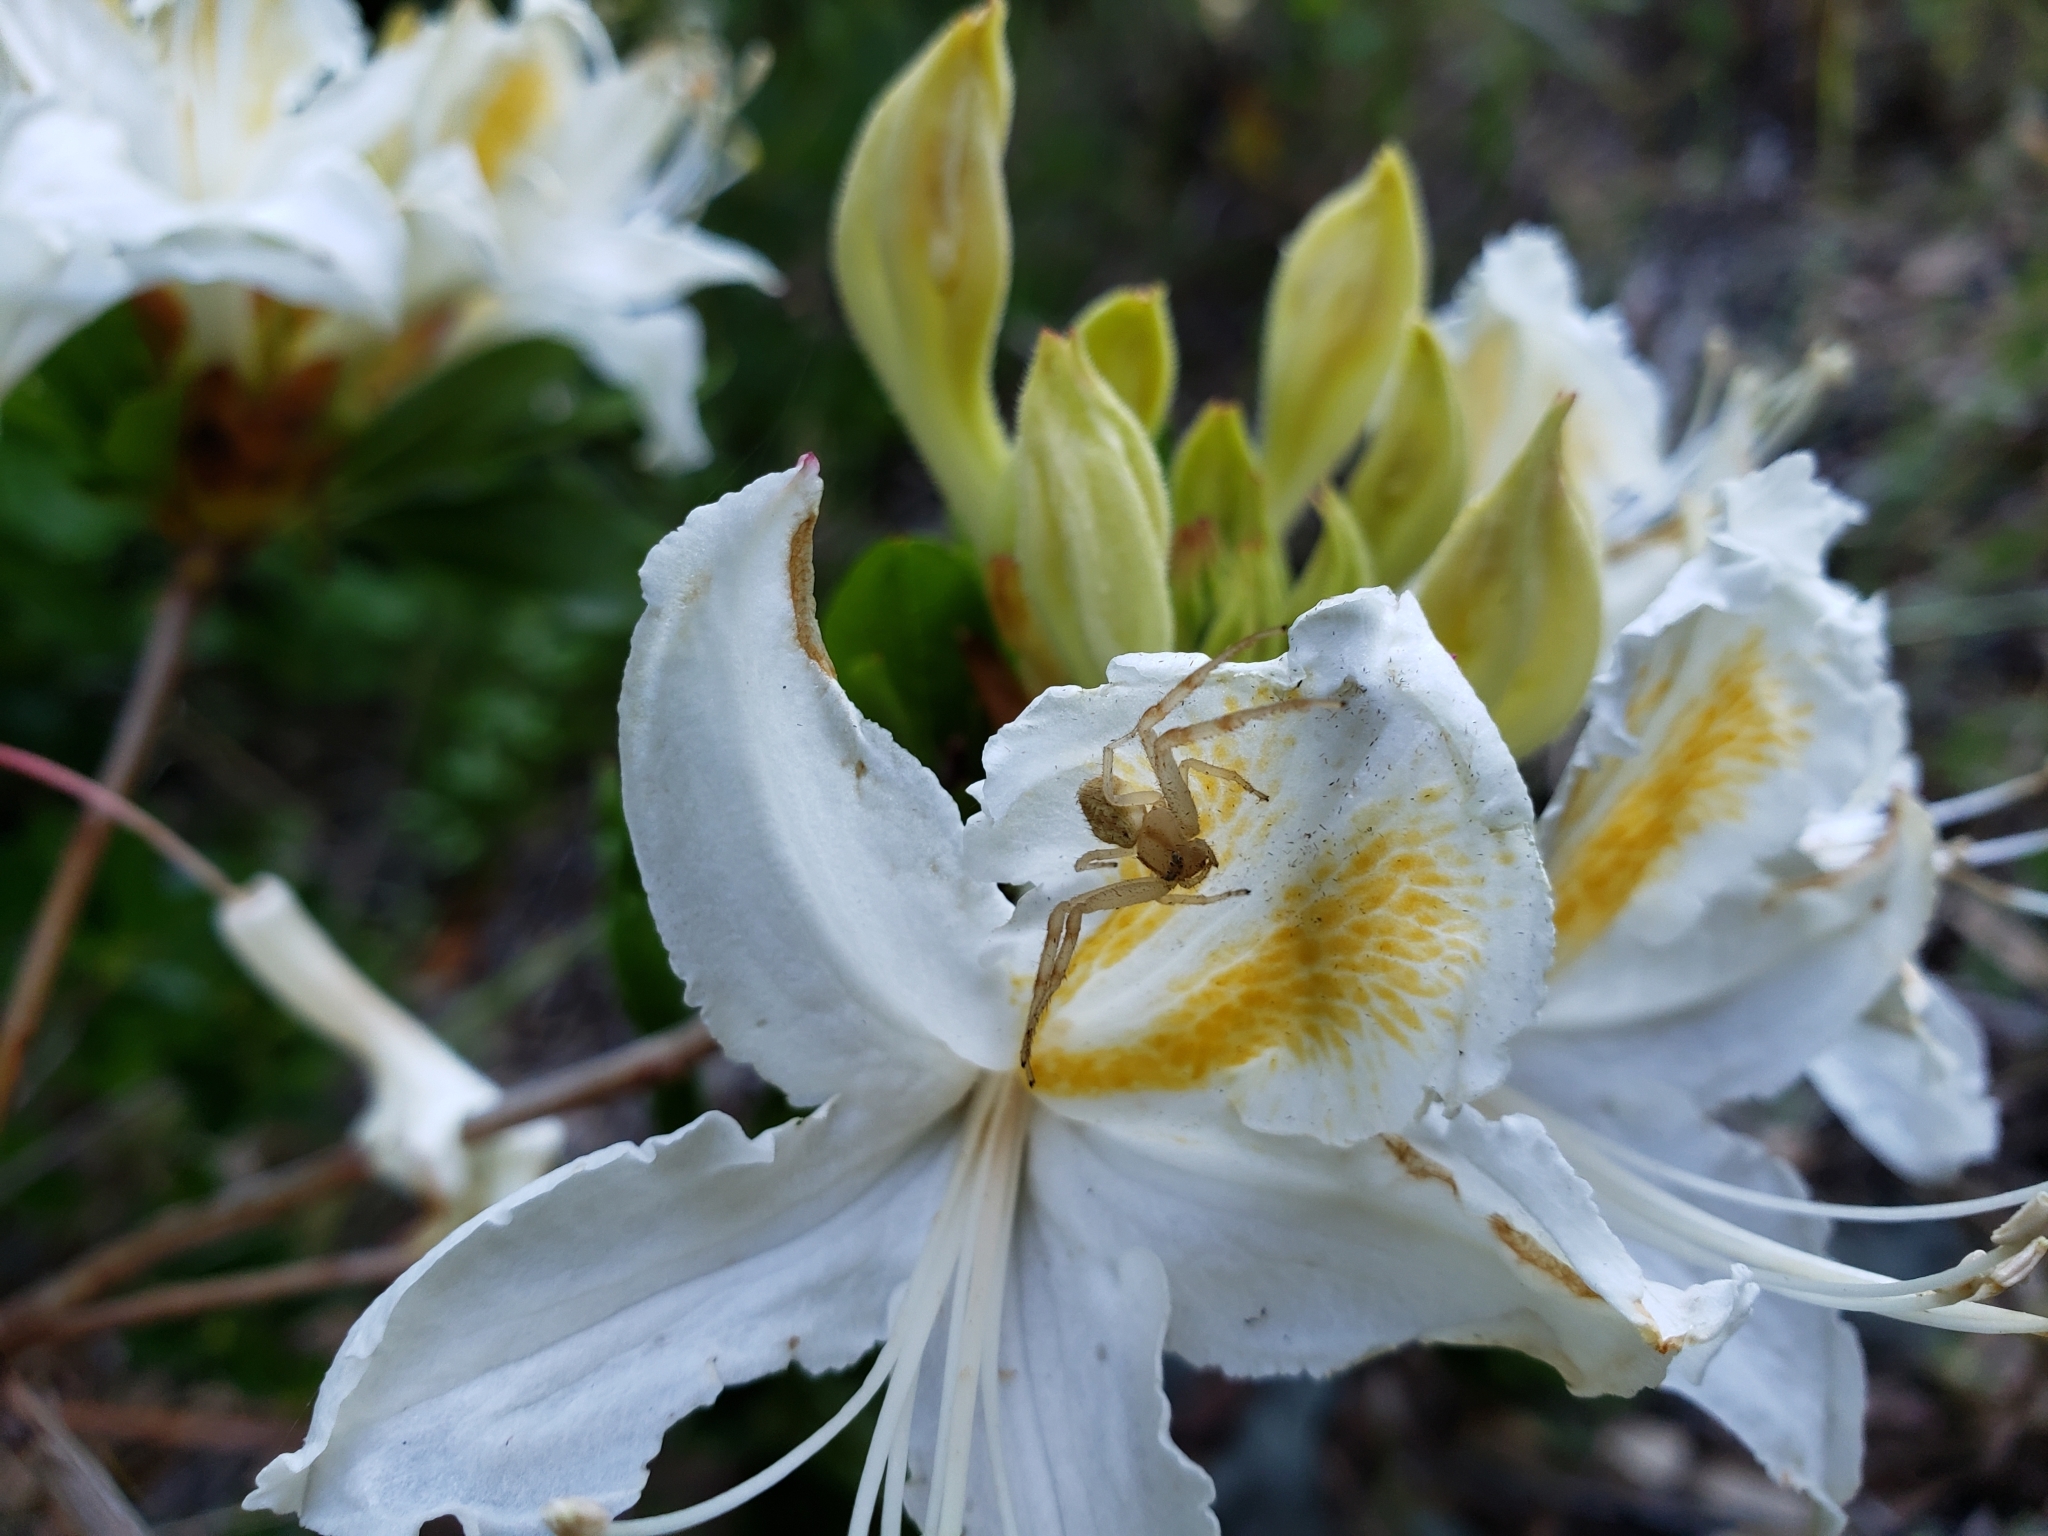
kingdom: Plantae
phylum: Tracheophyta
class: Magnoliopsida
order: Ericales
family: Ericaceae
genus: Rhododendron
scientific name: Rhododendron occidentale
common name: Western azalea
